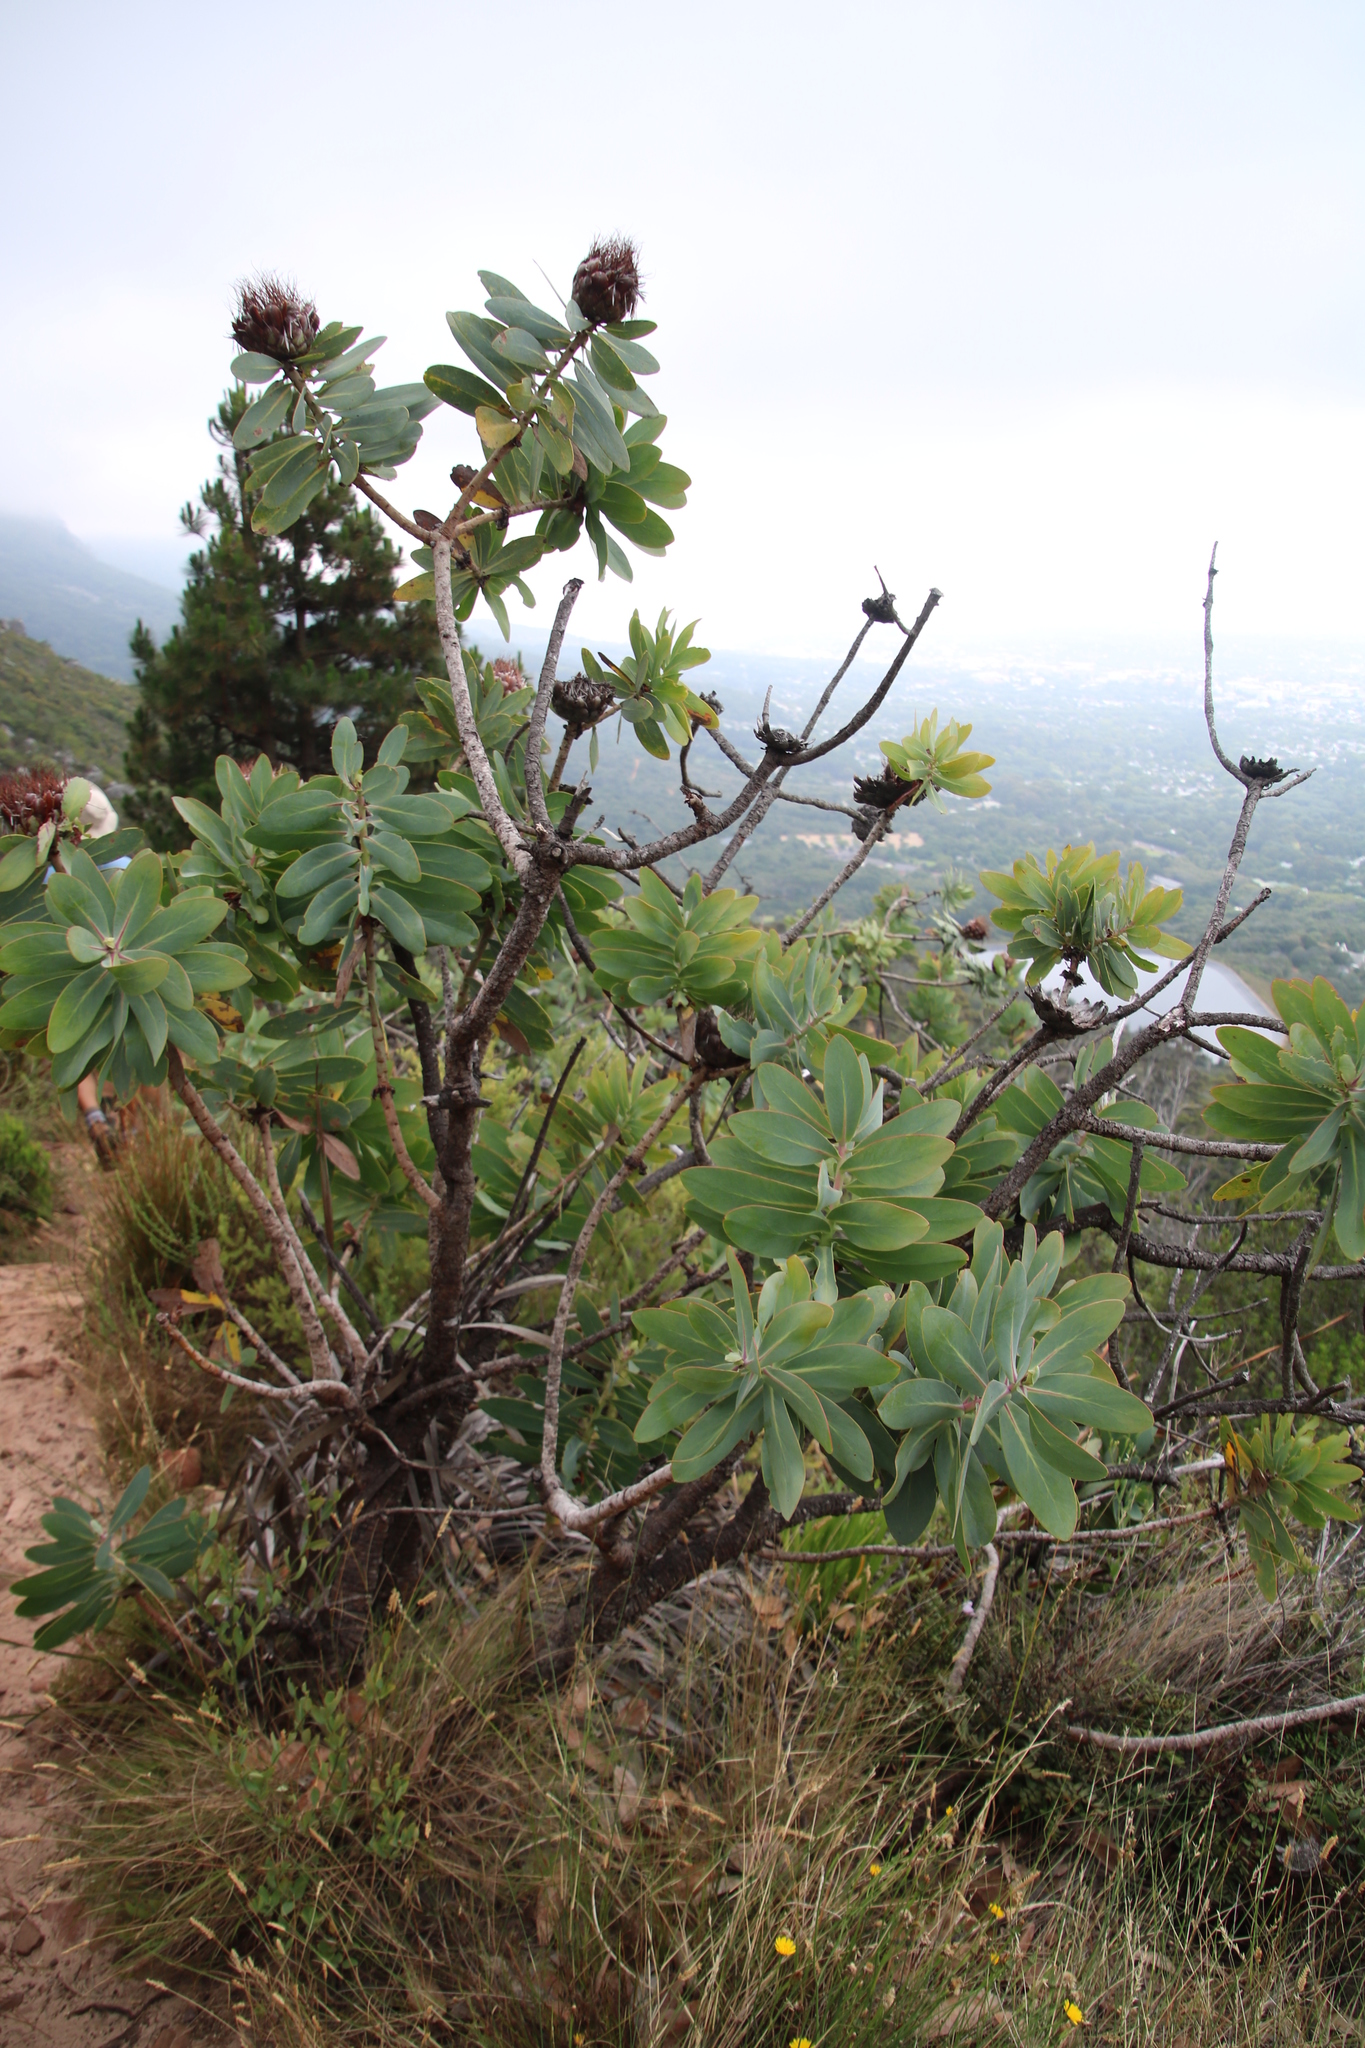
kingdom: Plantae
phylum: Tracheophyta
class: Magnoliopsida
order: Proteales
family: Proteaceae
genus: Protea
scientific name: Protea nitida
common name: Tree protea
